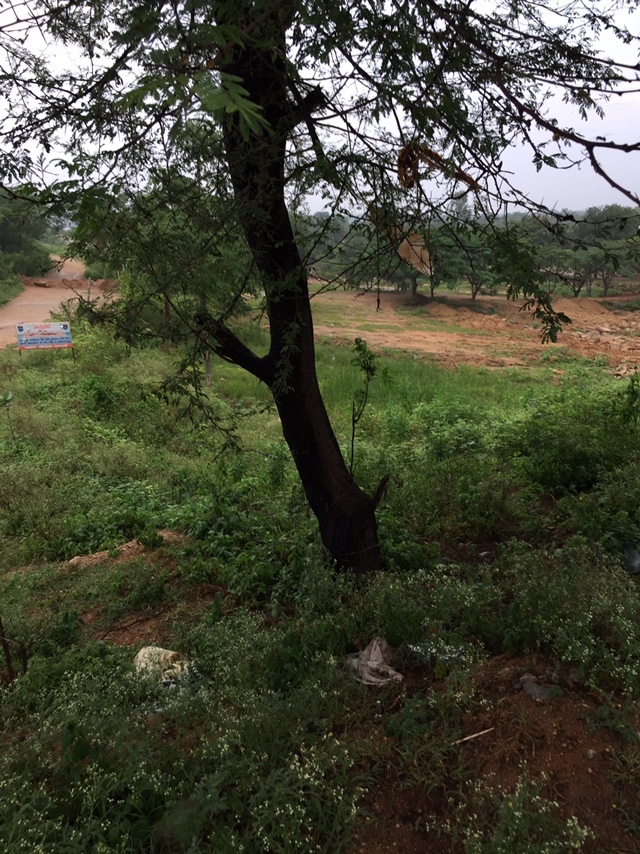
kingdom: Plantae
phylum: Tracheophyta
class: Magnoliopsida
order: Fabales
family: Fabaceae
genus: Vachellia
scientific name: Vachellia nilotica
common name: Arabic gumtree
